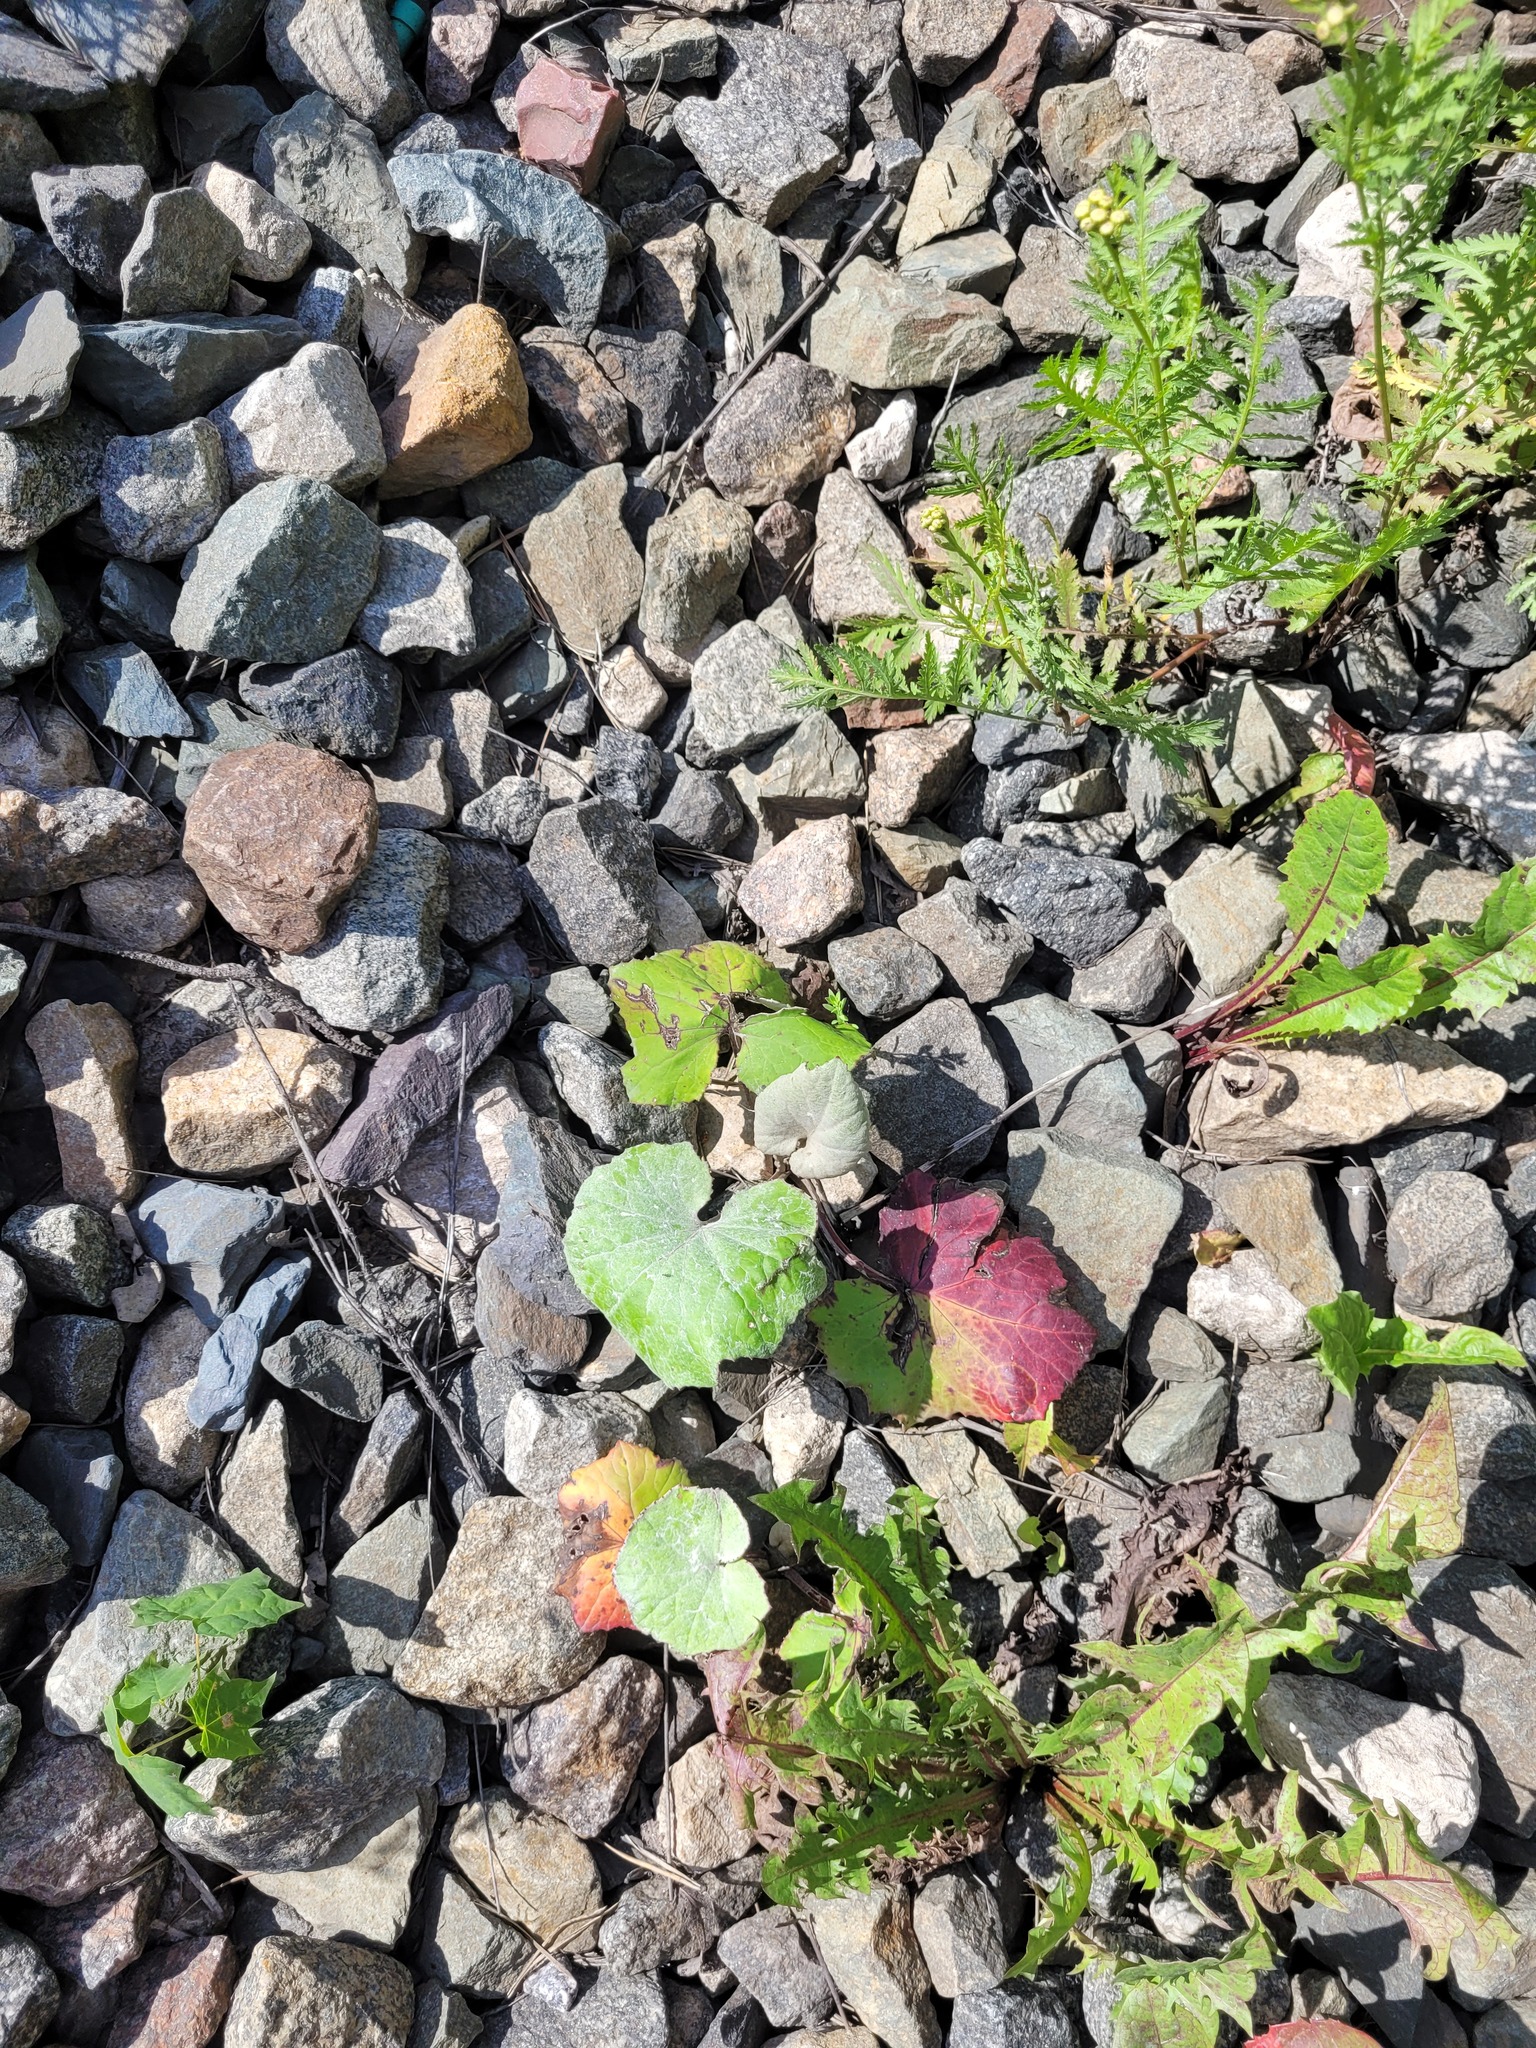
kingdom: Plantae
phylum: Tracheophyta
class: Magnoliopsida
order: Asterales
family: Asteraceae
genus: Tussilago
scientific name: Tussilago farfara
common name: Coltsfoot
